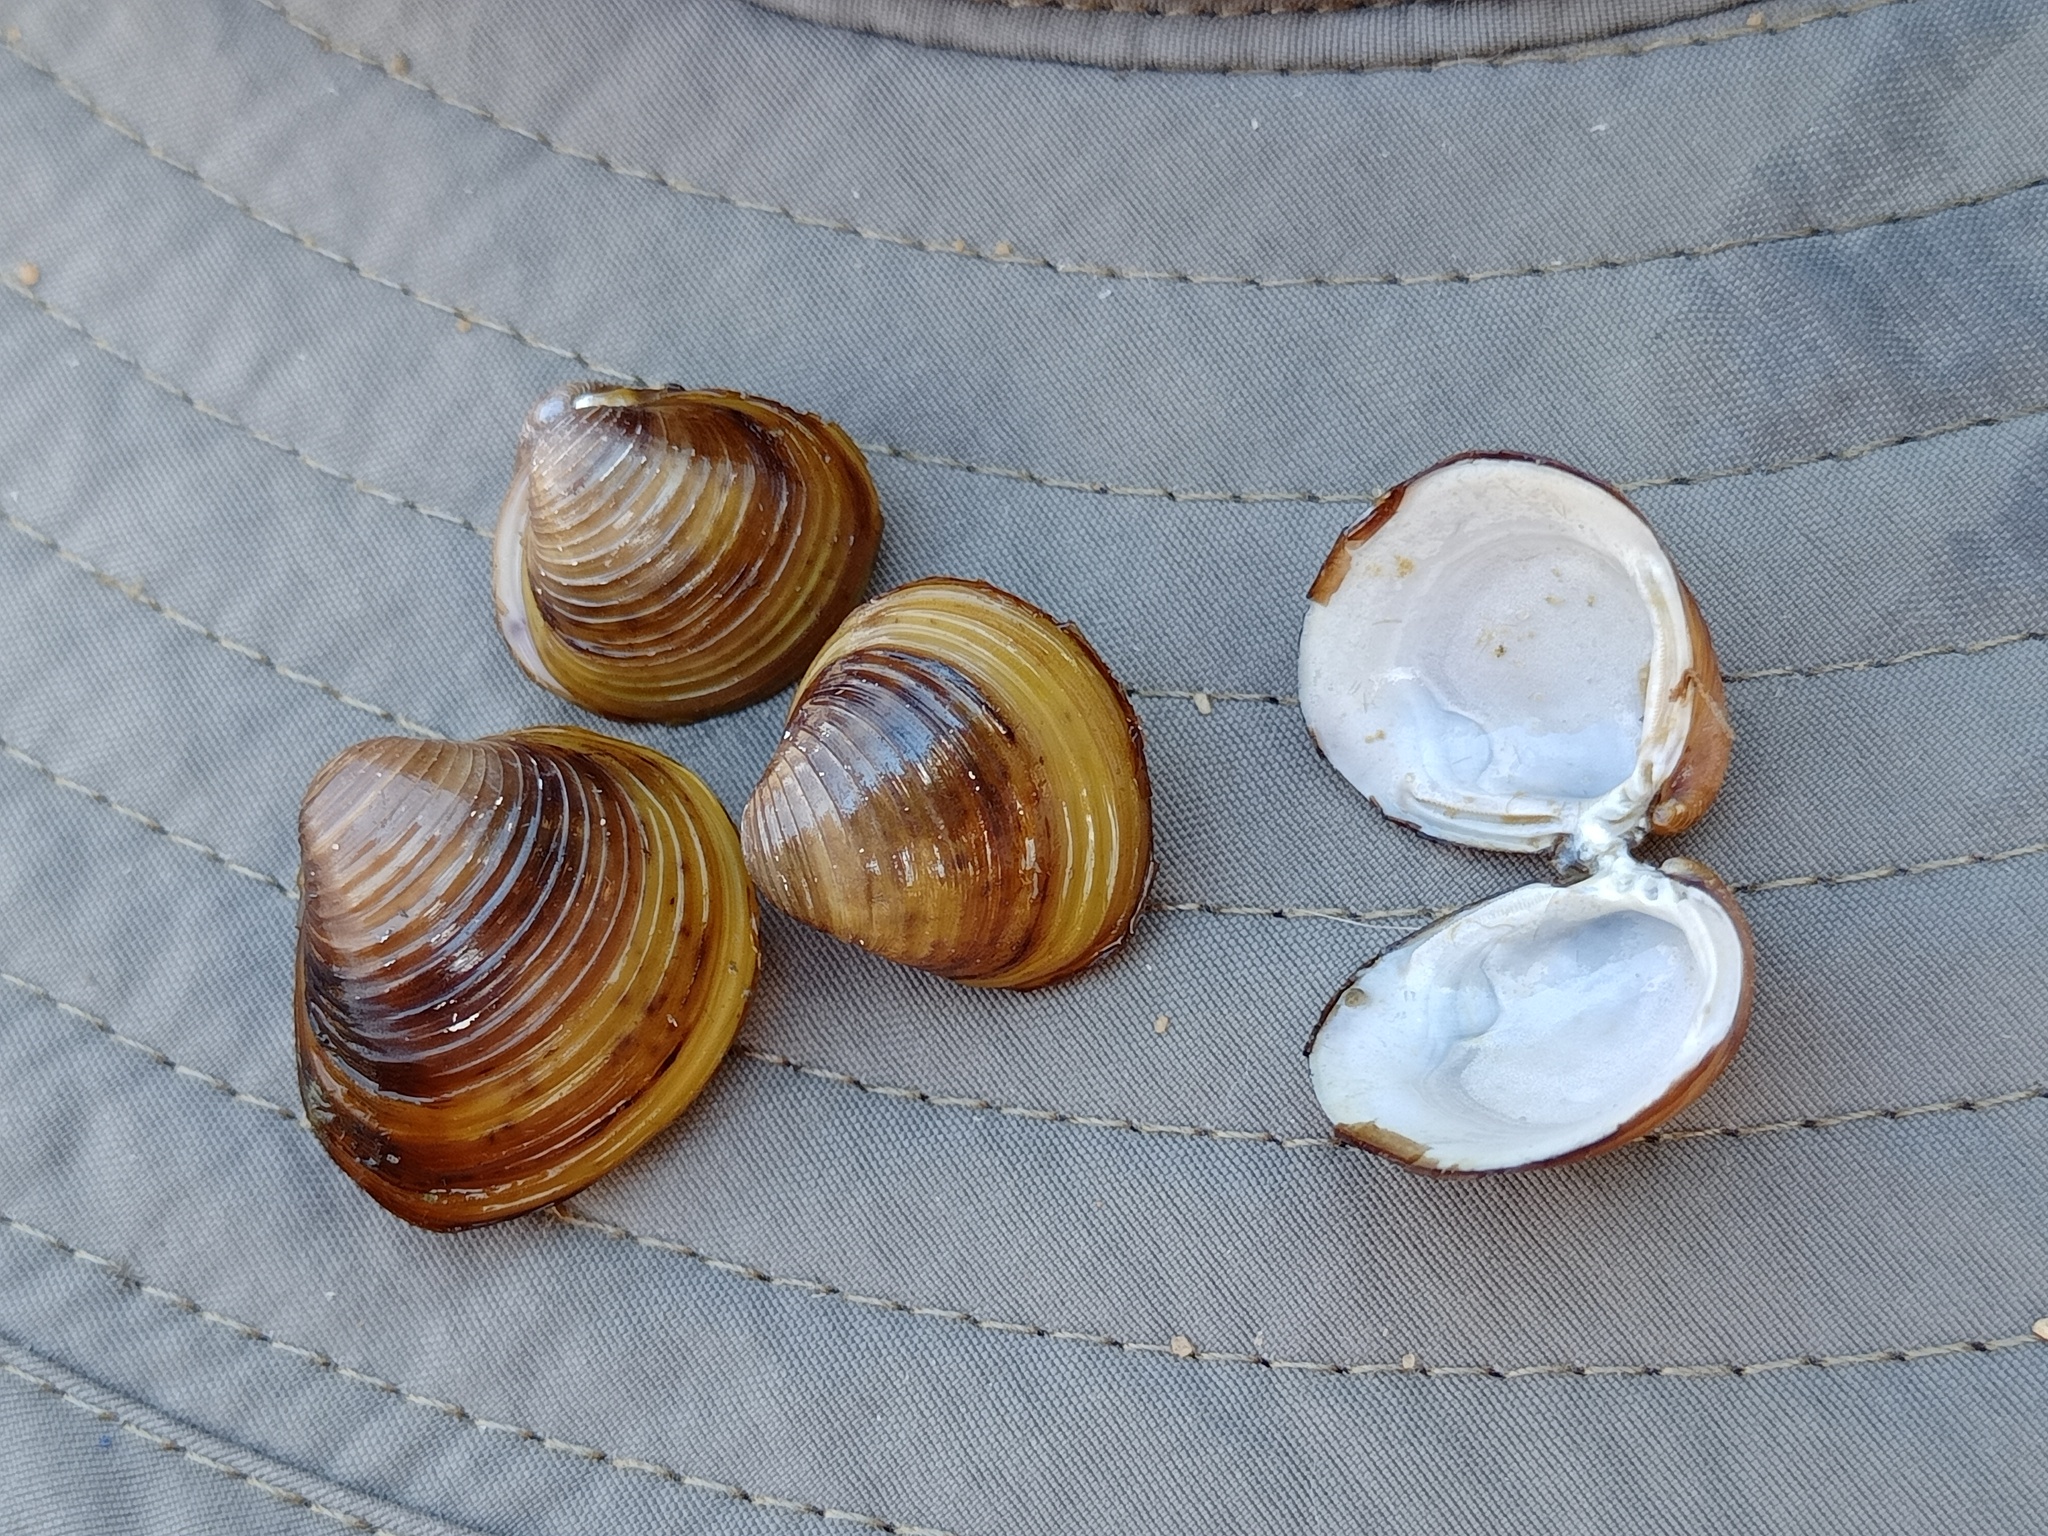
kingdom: Animalia
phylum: Mollusca
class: Bivalvia
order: Venerida
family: Cyrenidae
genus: Corbicula
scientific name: Corbicula fluminea
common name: Asian clam
